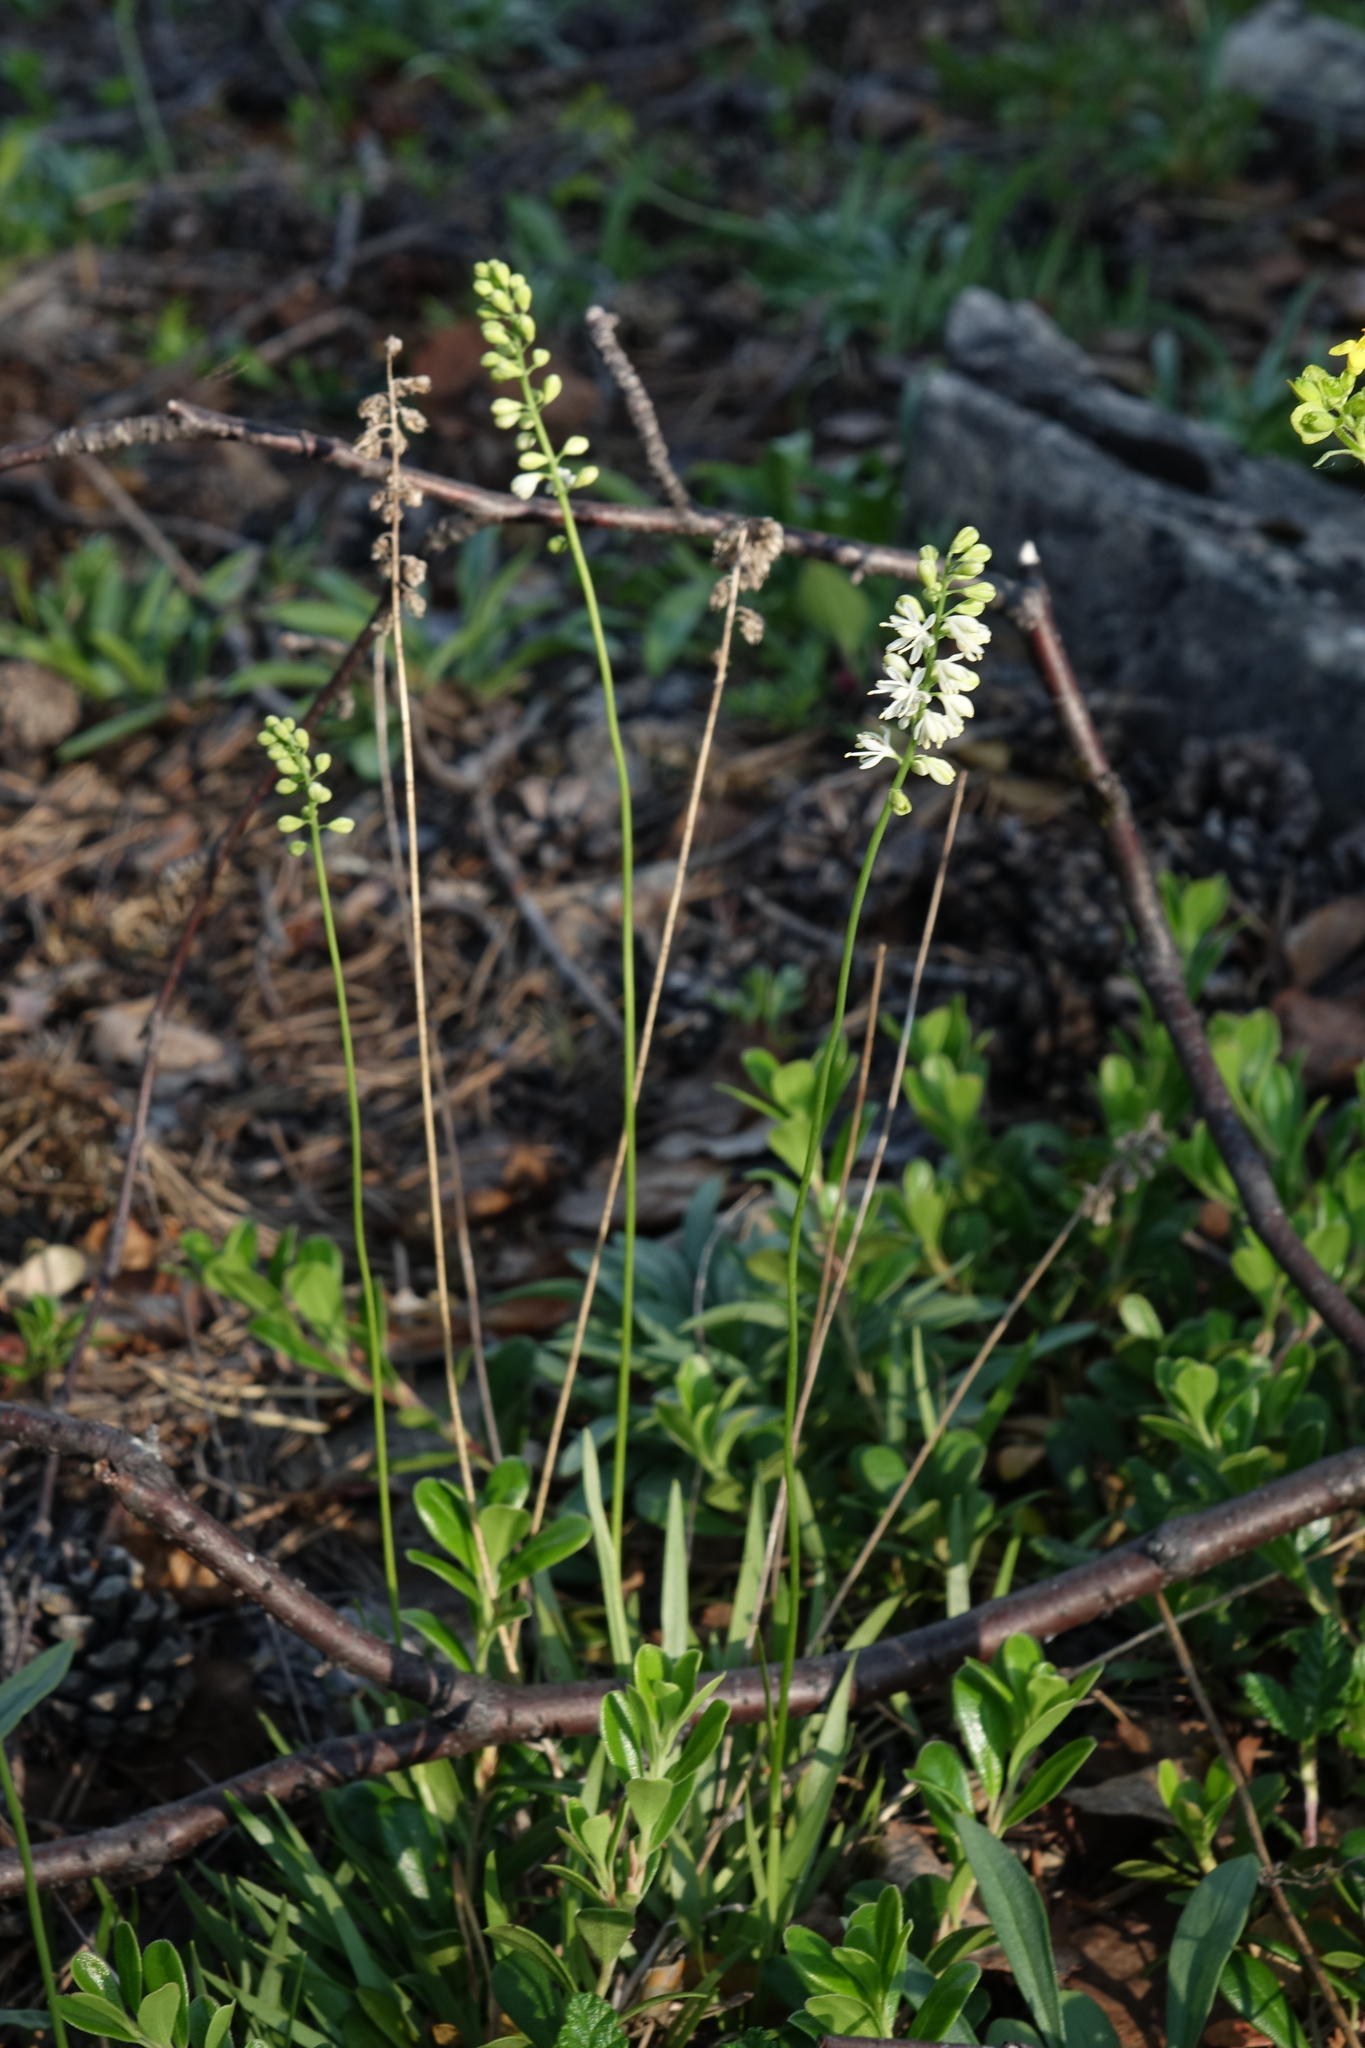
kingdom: Plantae
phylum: Tracheophyta
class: Liliopsida
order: Alismatales
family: Tofieldiaceae
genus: Tofieldia
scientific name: Tofieldia cernua
